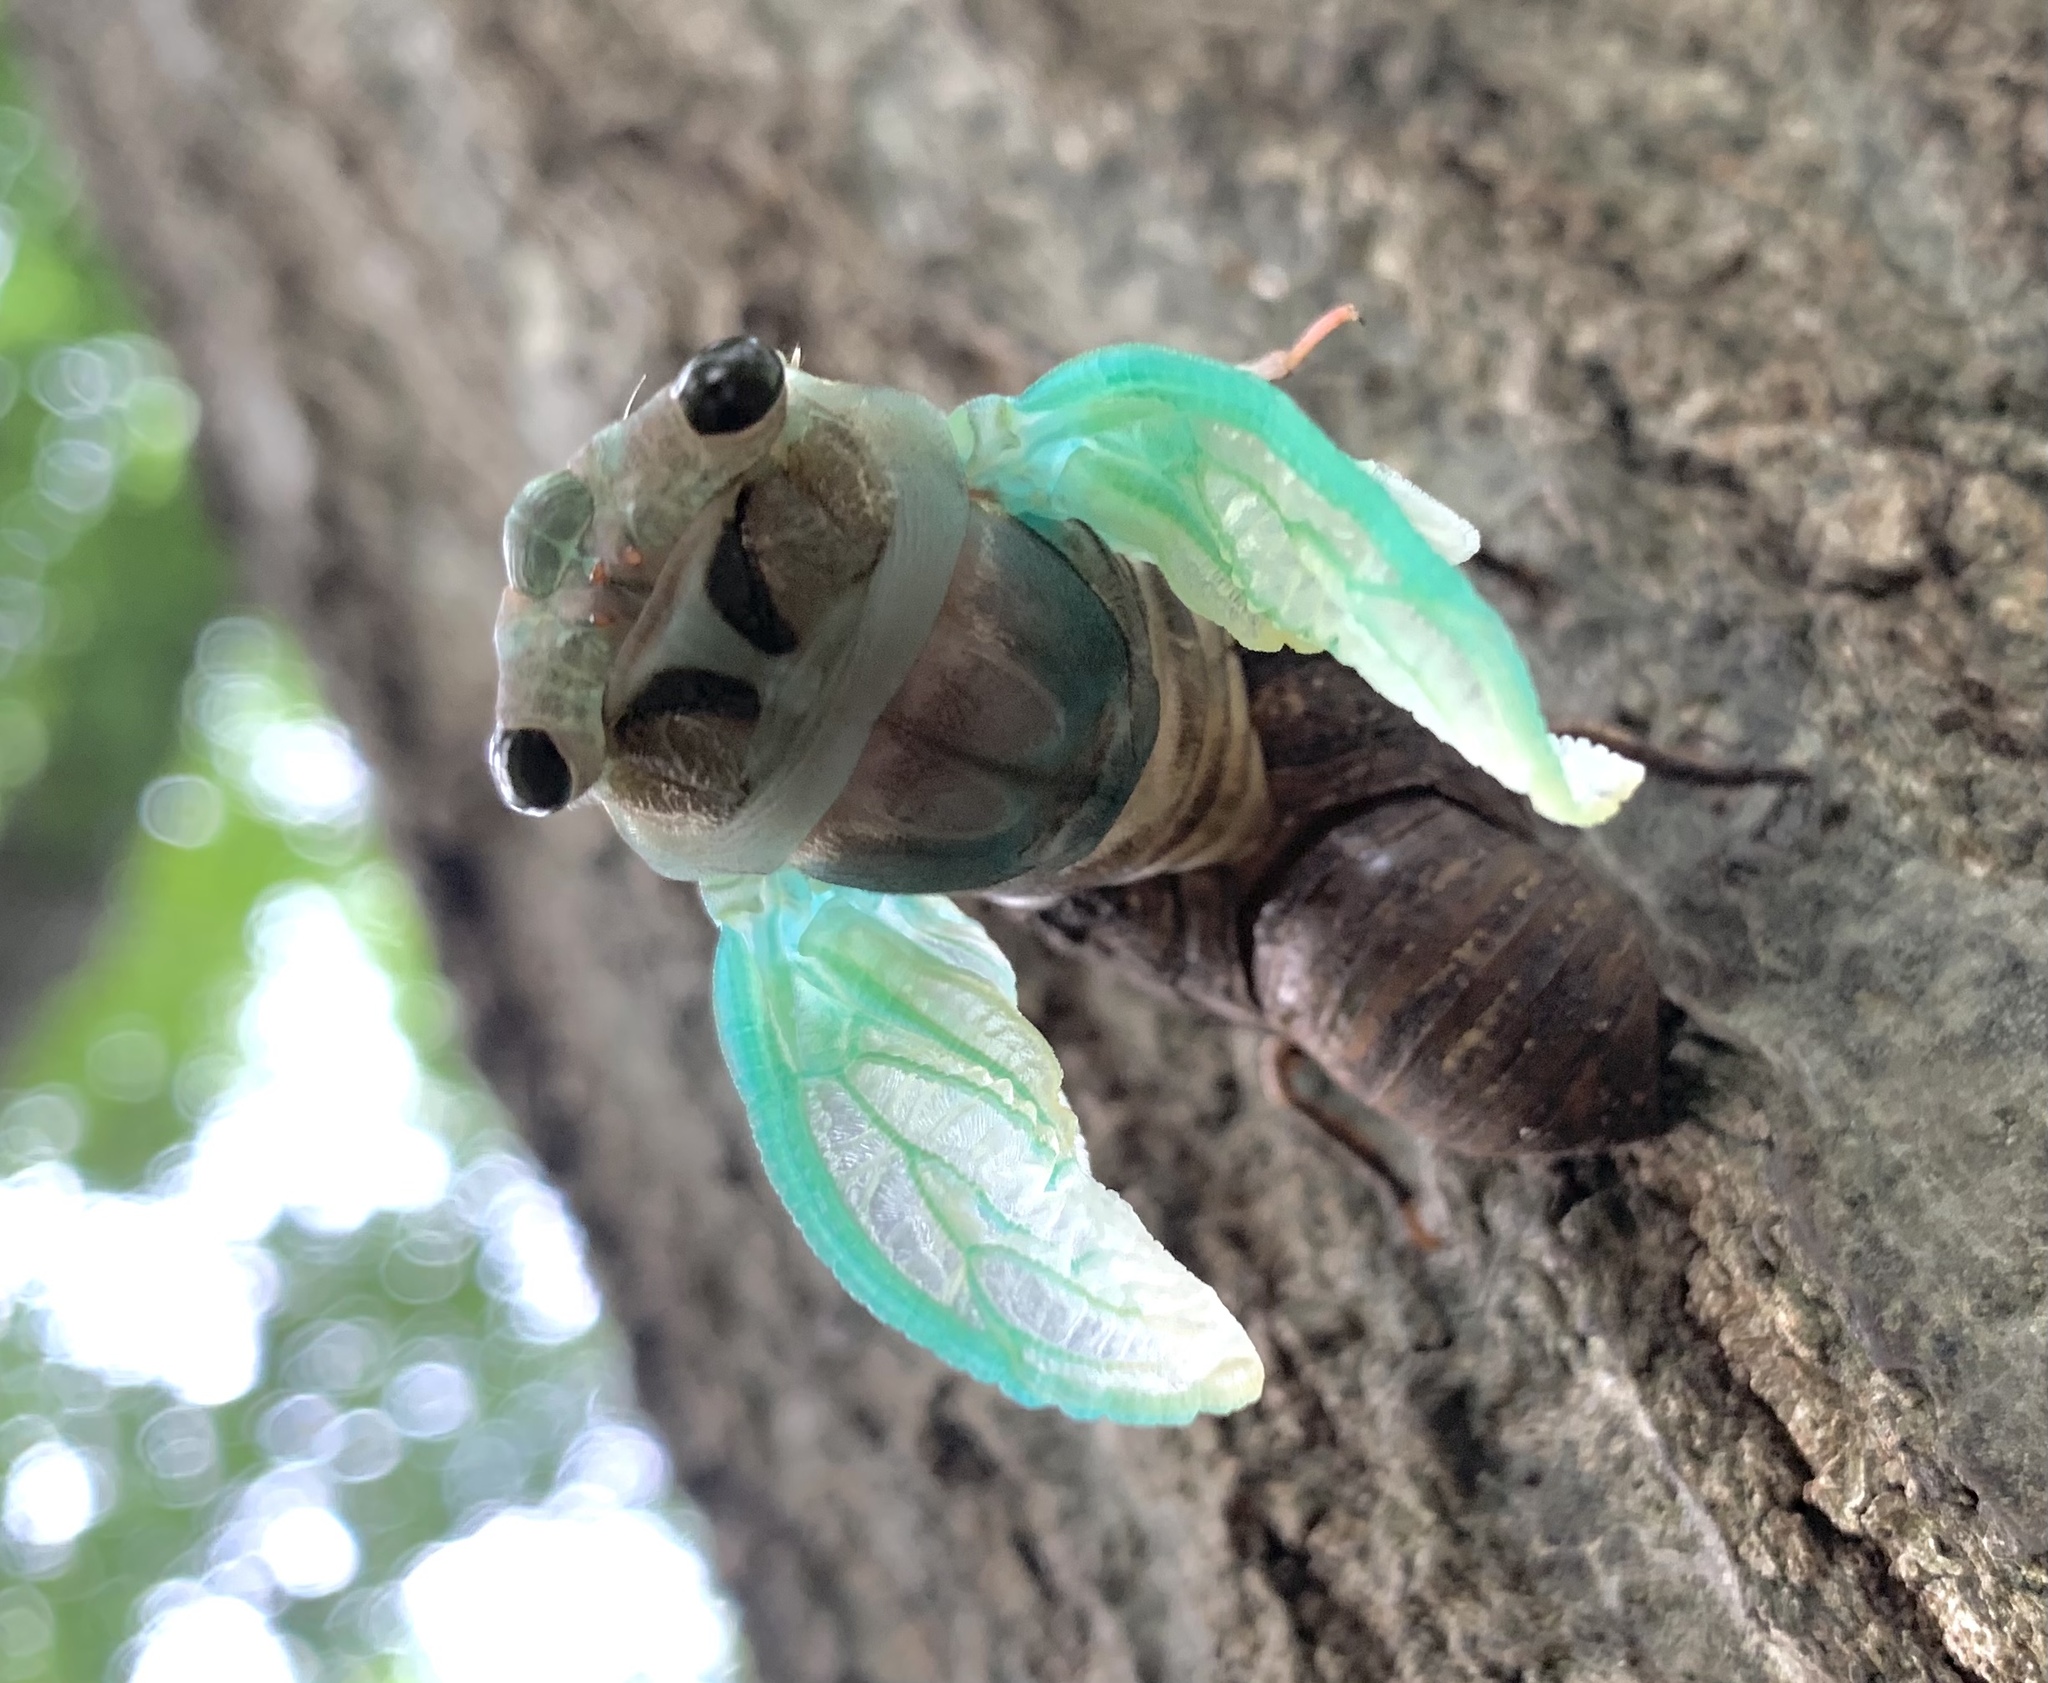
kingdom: Animalia
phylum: Arthropoda
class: Insecta
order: Hemiptera
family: Cicadidae
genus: Neotibicen
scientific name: Neotibicen lyricen
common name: Lyric cicada
